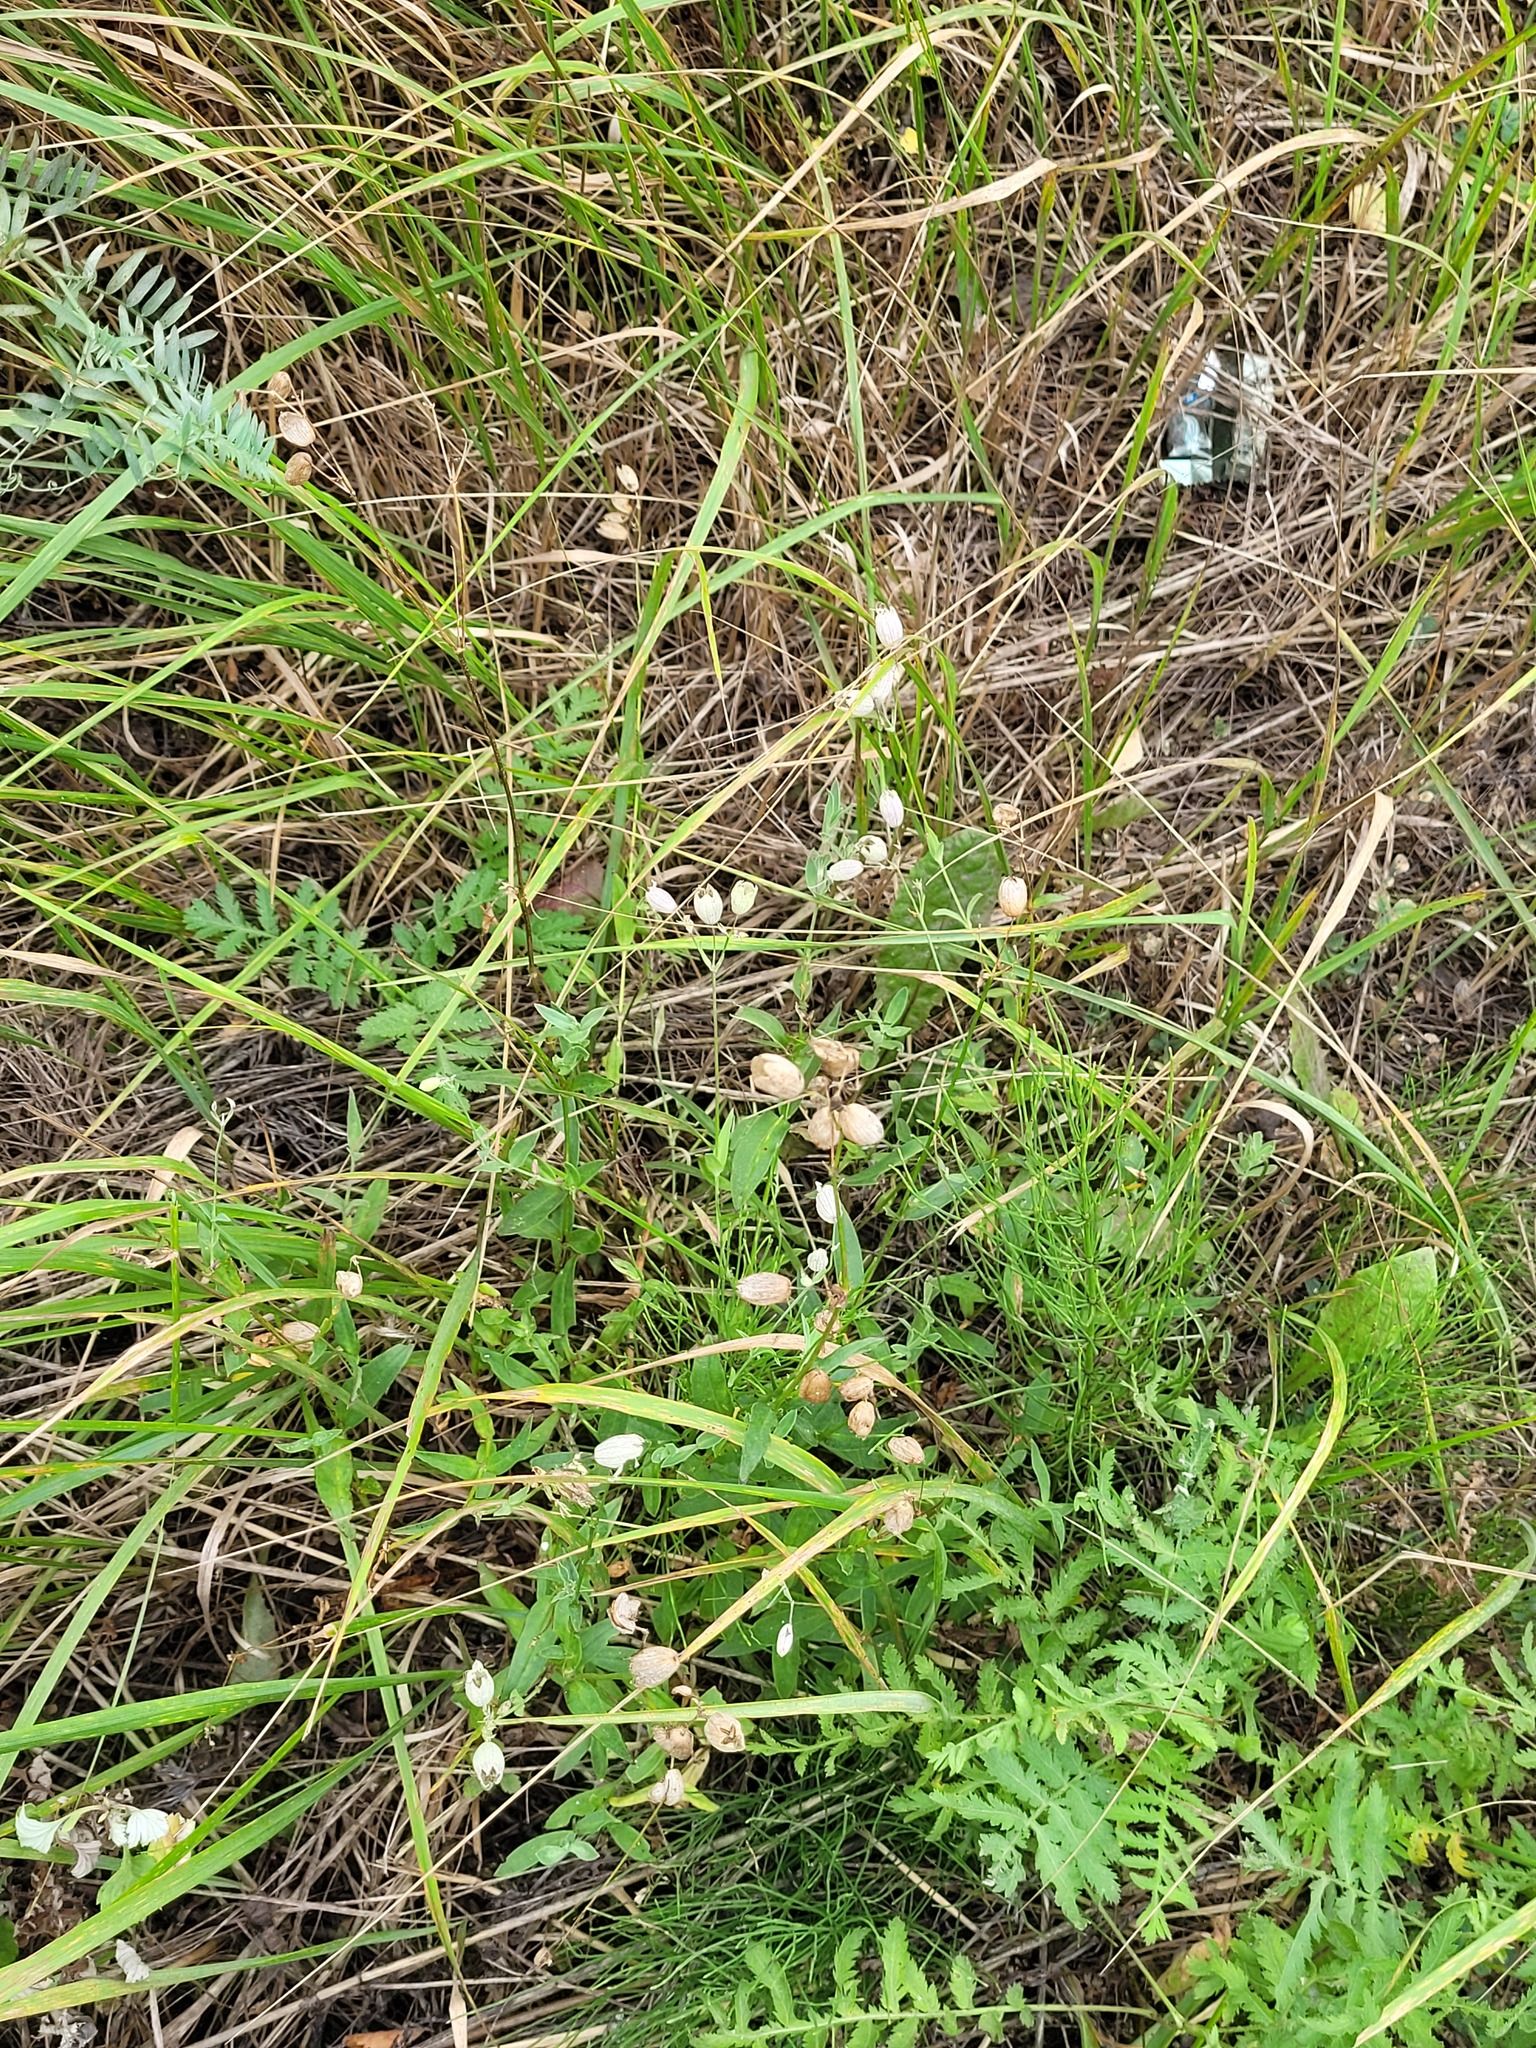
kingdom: Plantae
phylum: Tracheophyta
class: Magnoliopsida
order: Caryophyllales
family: Caryophyllaceae
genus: Silene
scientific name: Silene vulgaris
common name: Bladder campion
